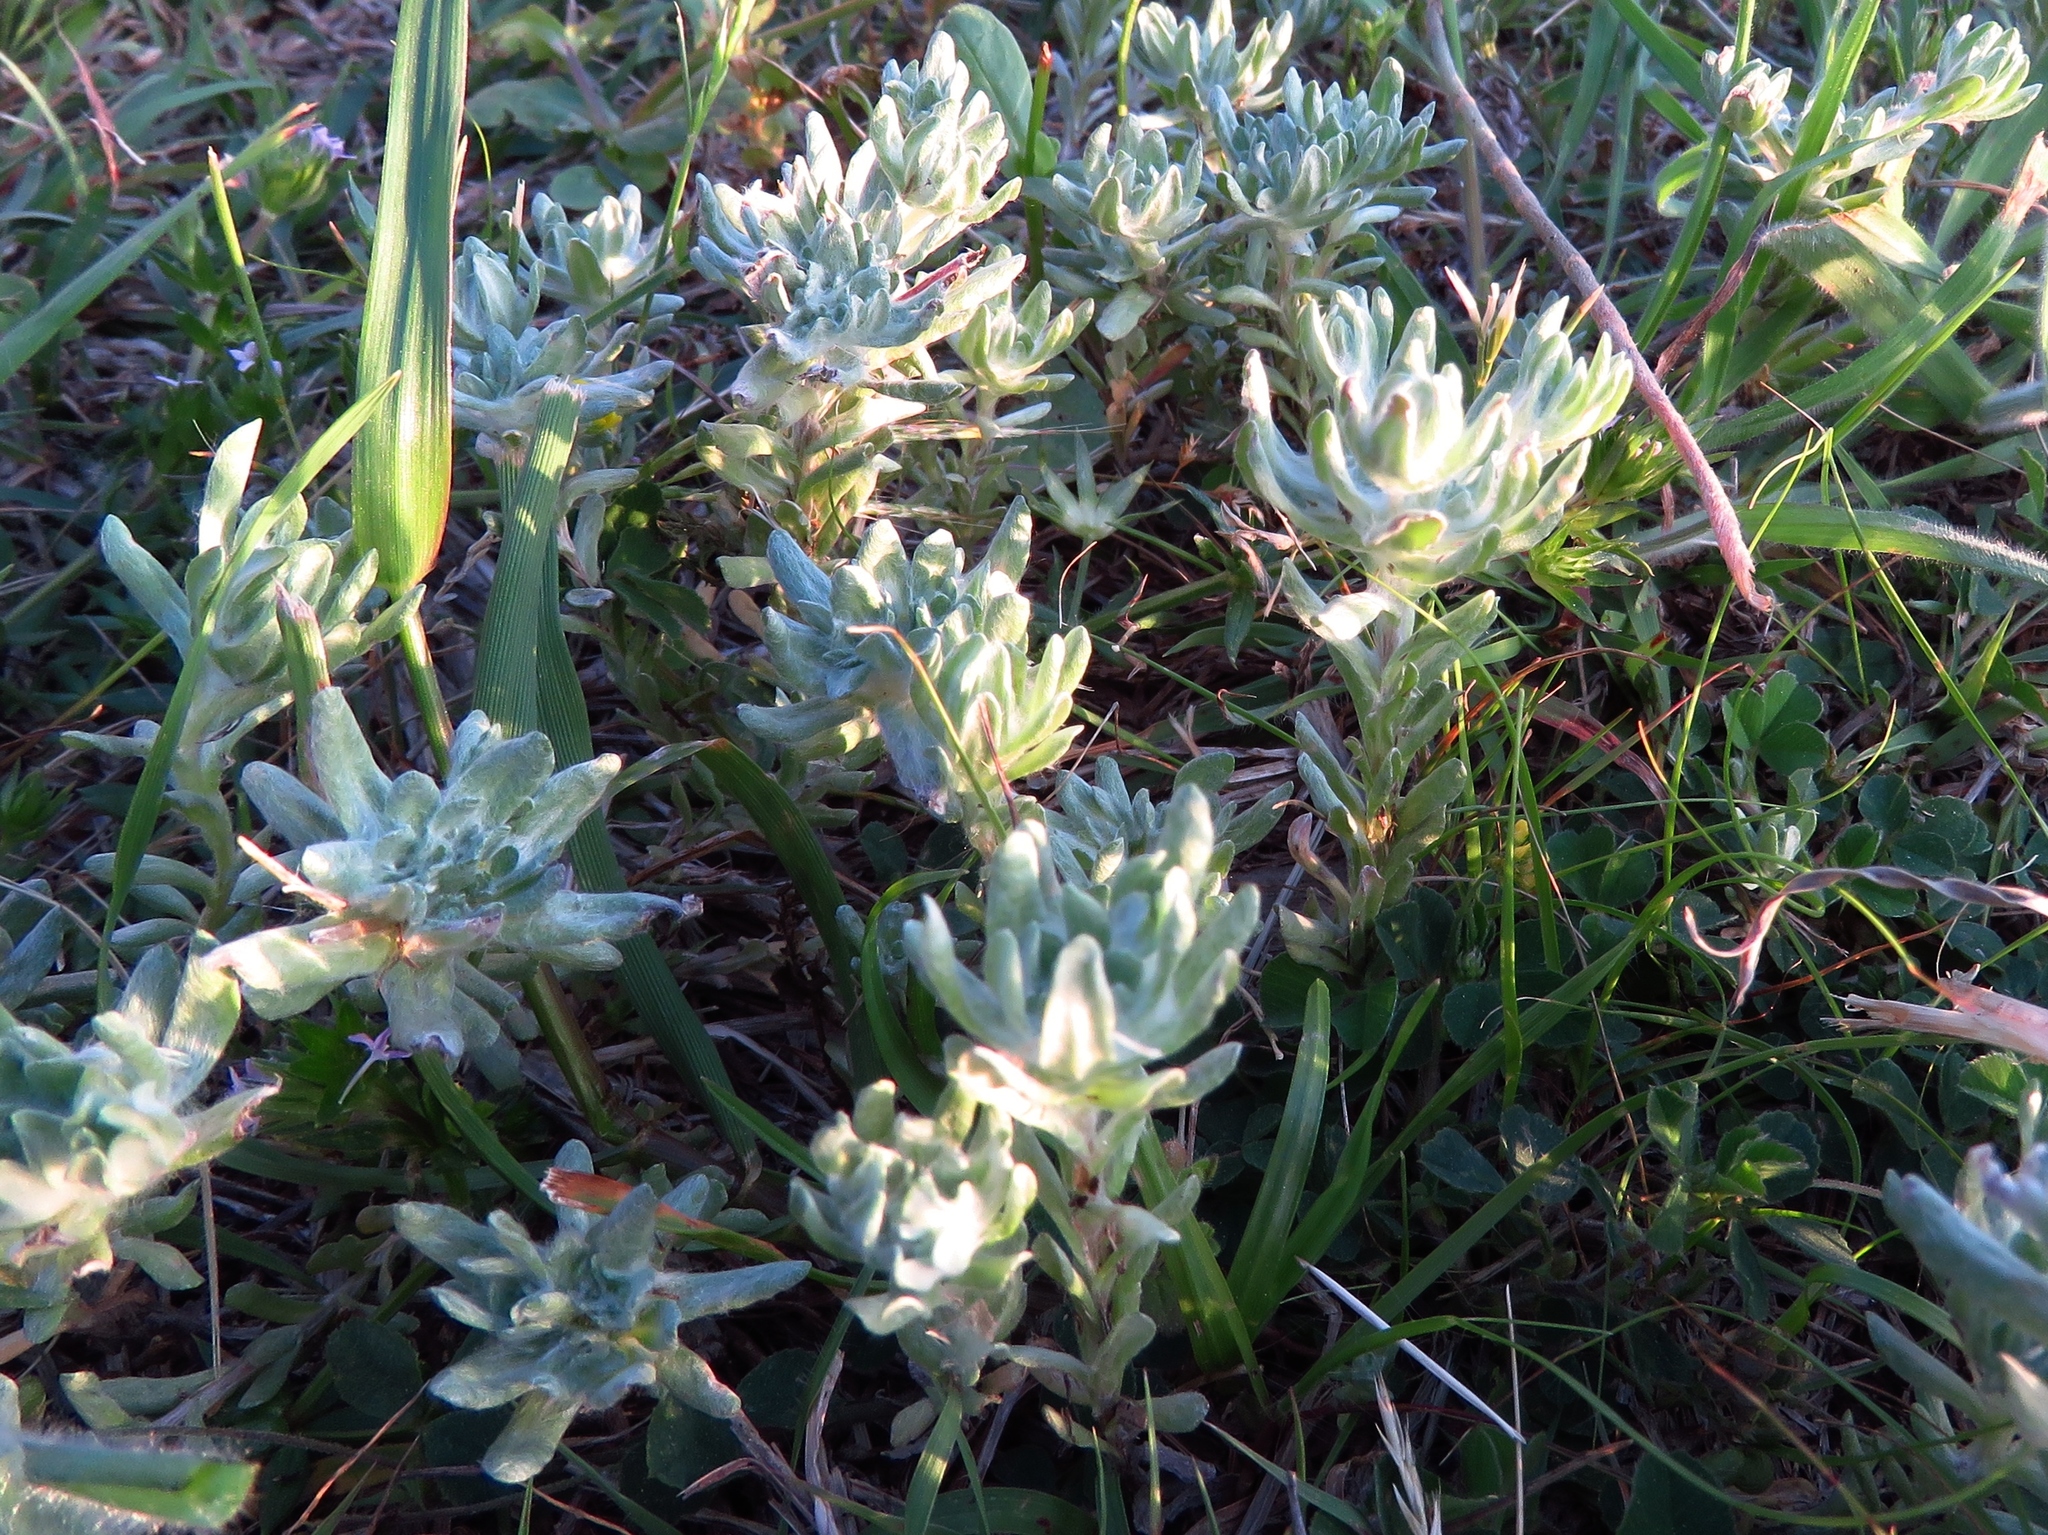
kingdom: Plantae
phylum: Tracheophyta
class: Magnoliopsida
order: Asterales
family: Asteraceae
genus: Diaperia
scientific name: Diaperia prolifera
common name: Big-head rabbit-tobacco
